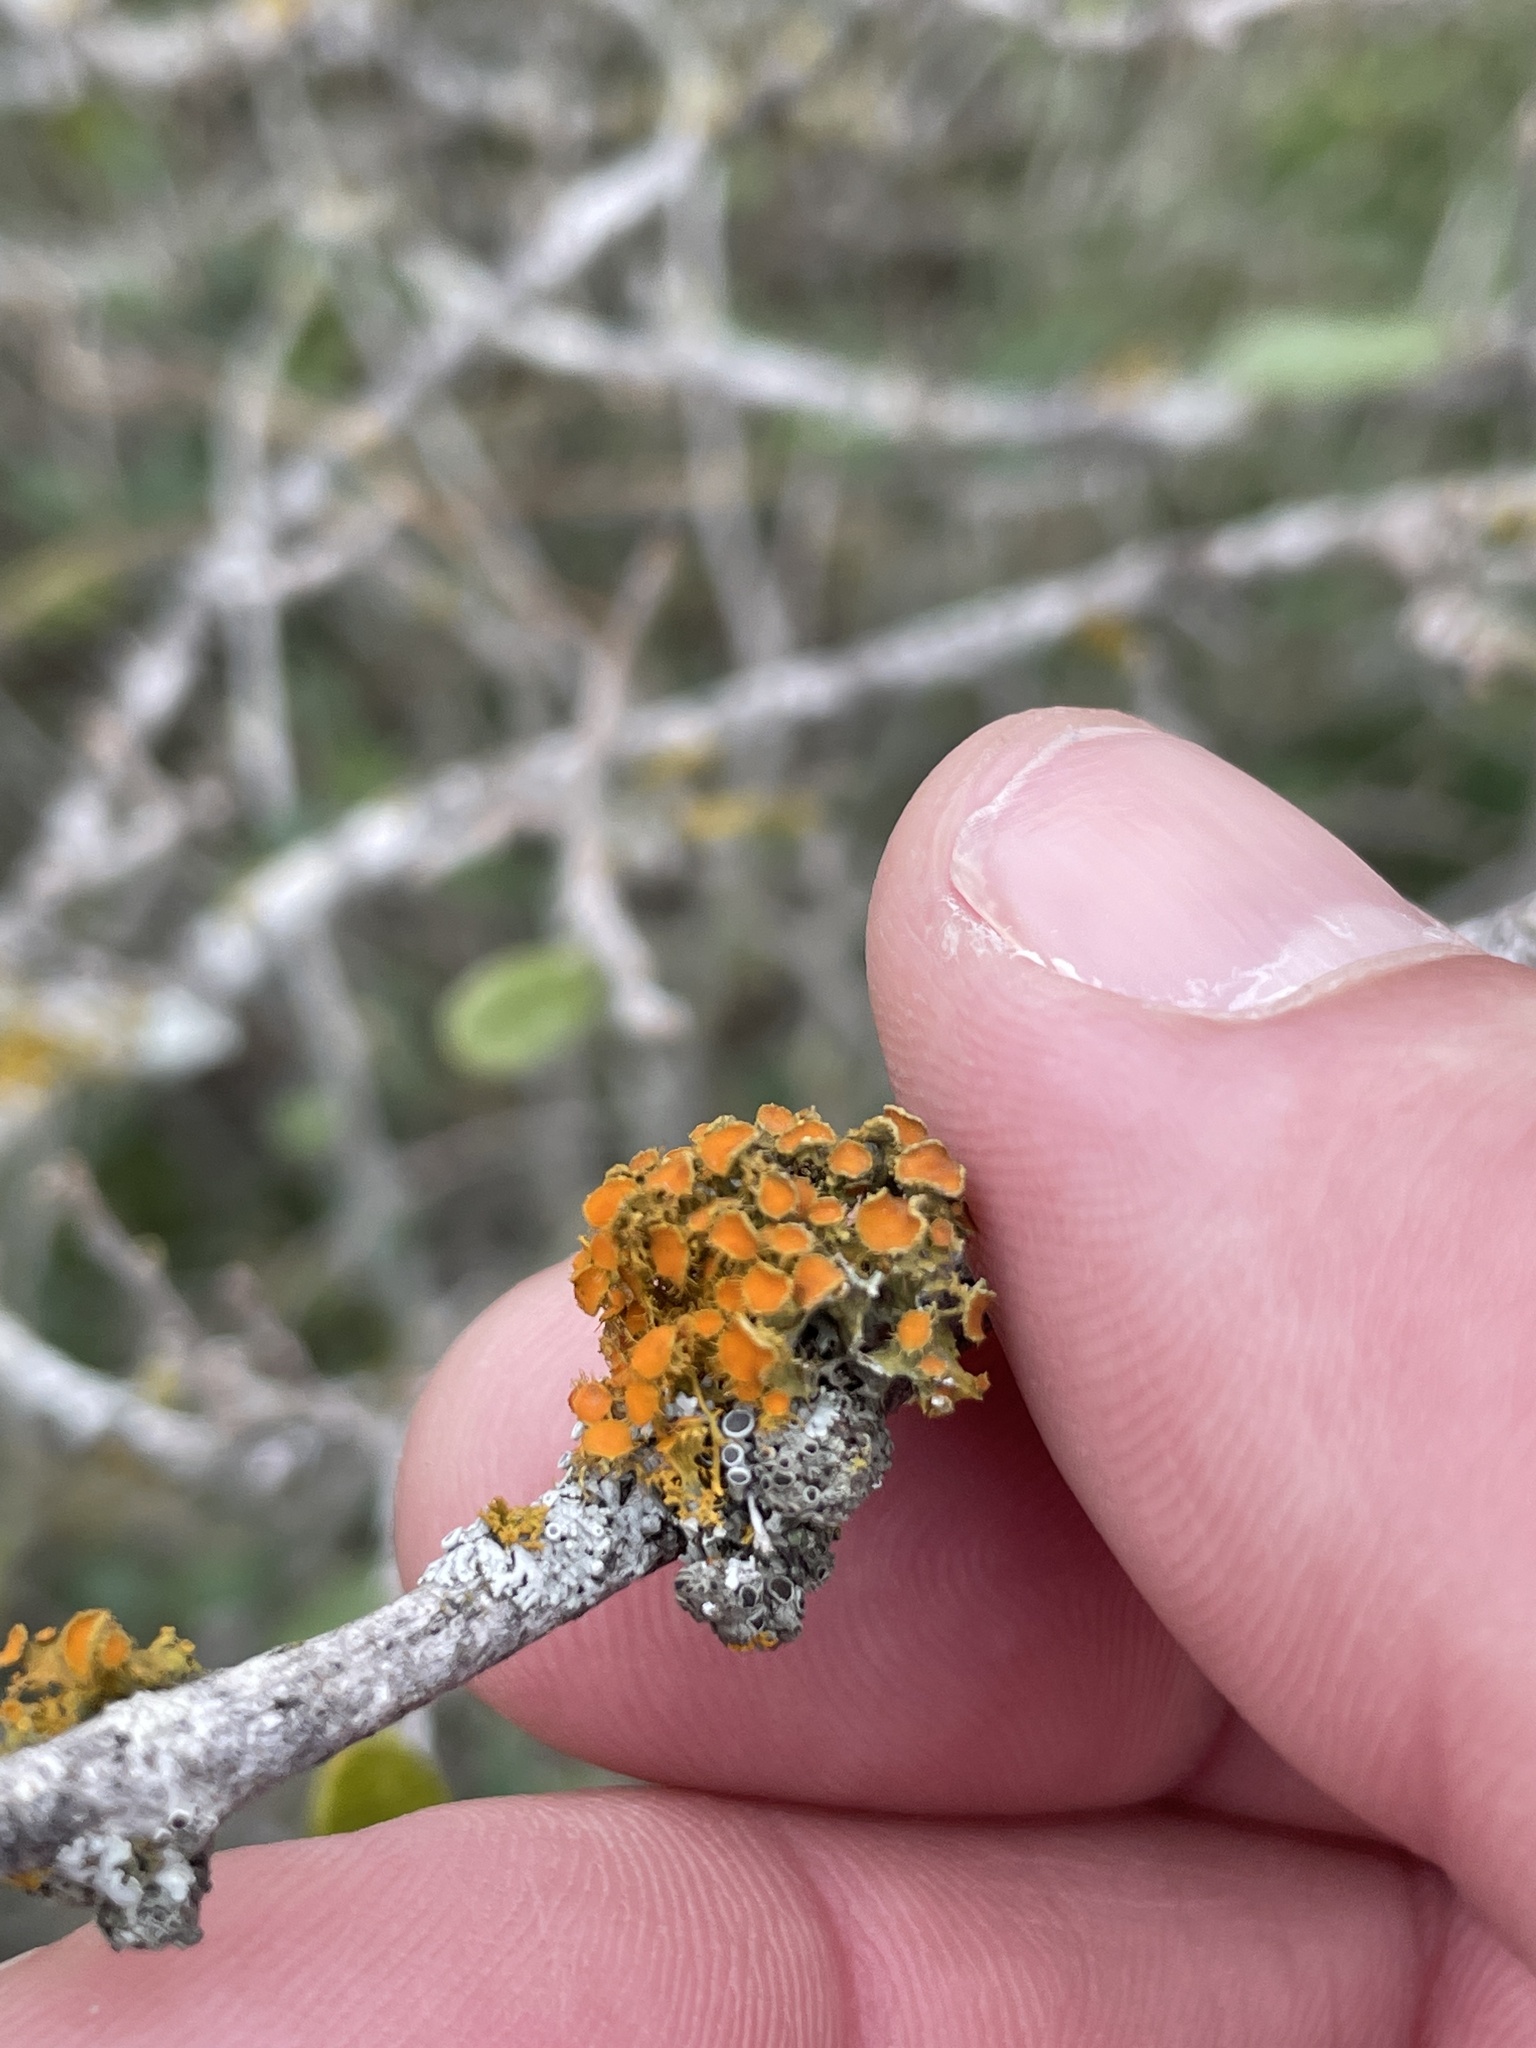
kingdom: Fungi
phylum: Ascomycota
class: Lecanoromycetes
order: Teloschistales
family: Teloschistaceae
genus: Niorma
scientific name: Niorma chrysophthalma
